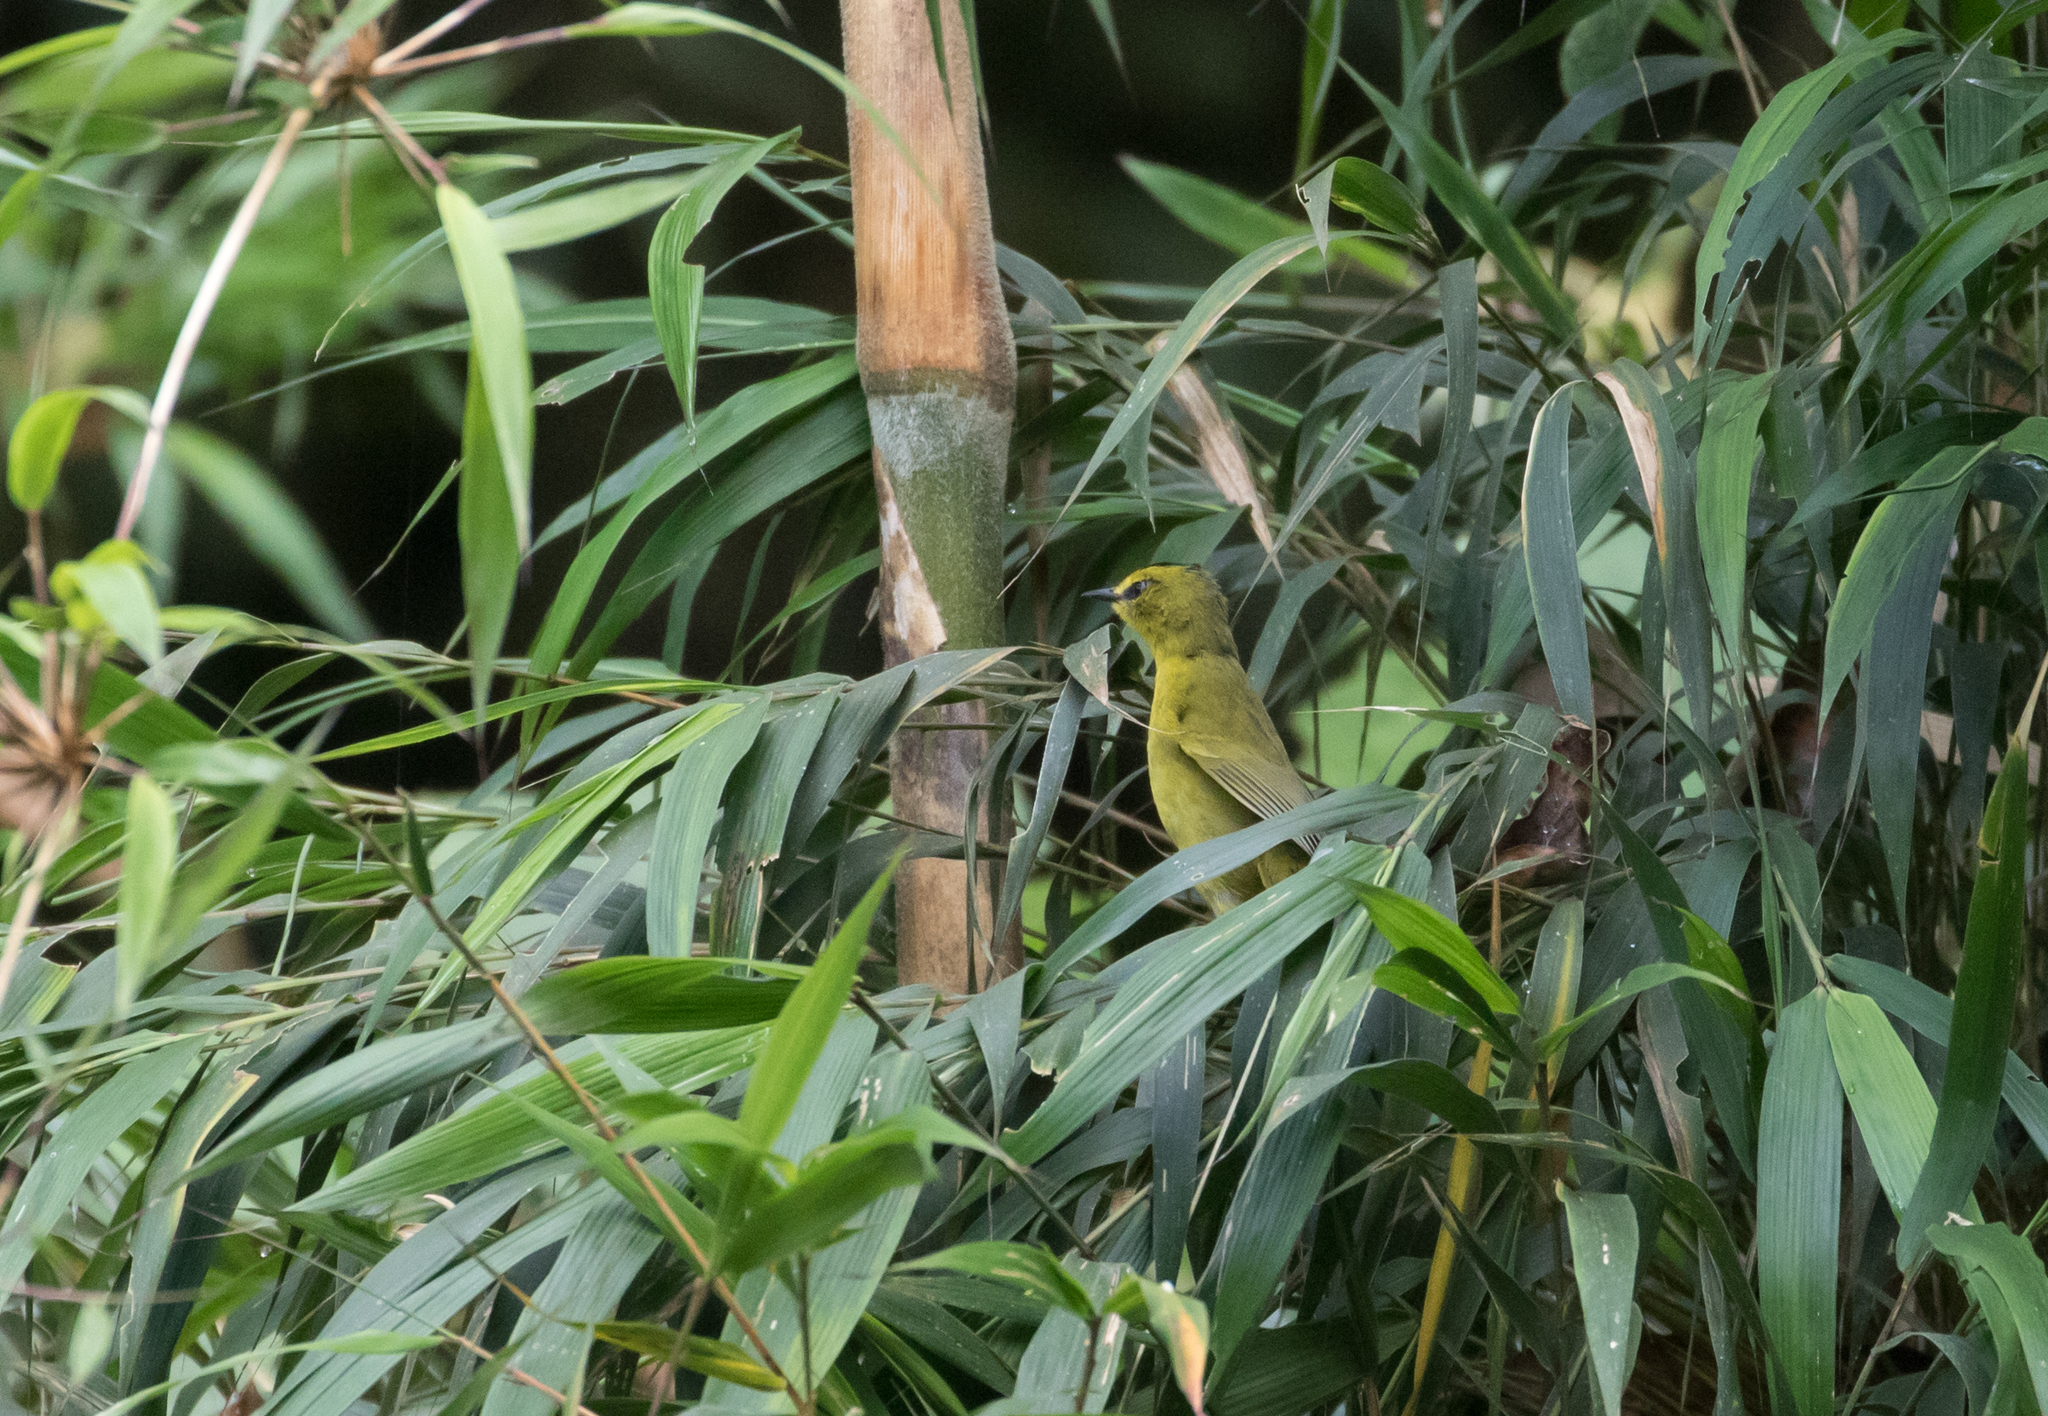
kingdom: Animalia
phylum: Chordata
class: Aves
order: Passeriformes
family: Parulidae
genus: Myiothlypis
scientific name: Myiothlypis nigrocristata
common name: Black-crested warbler
